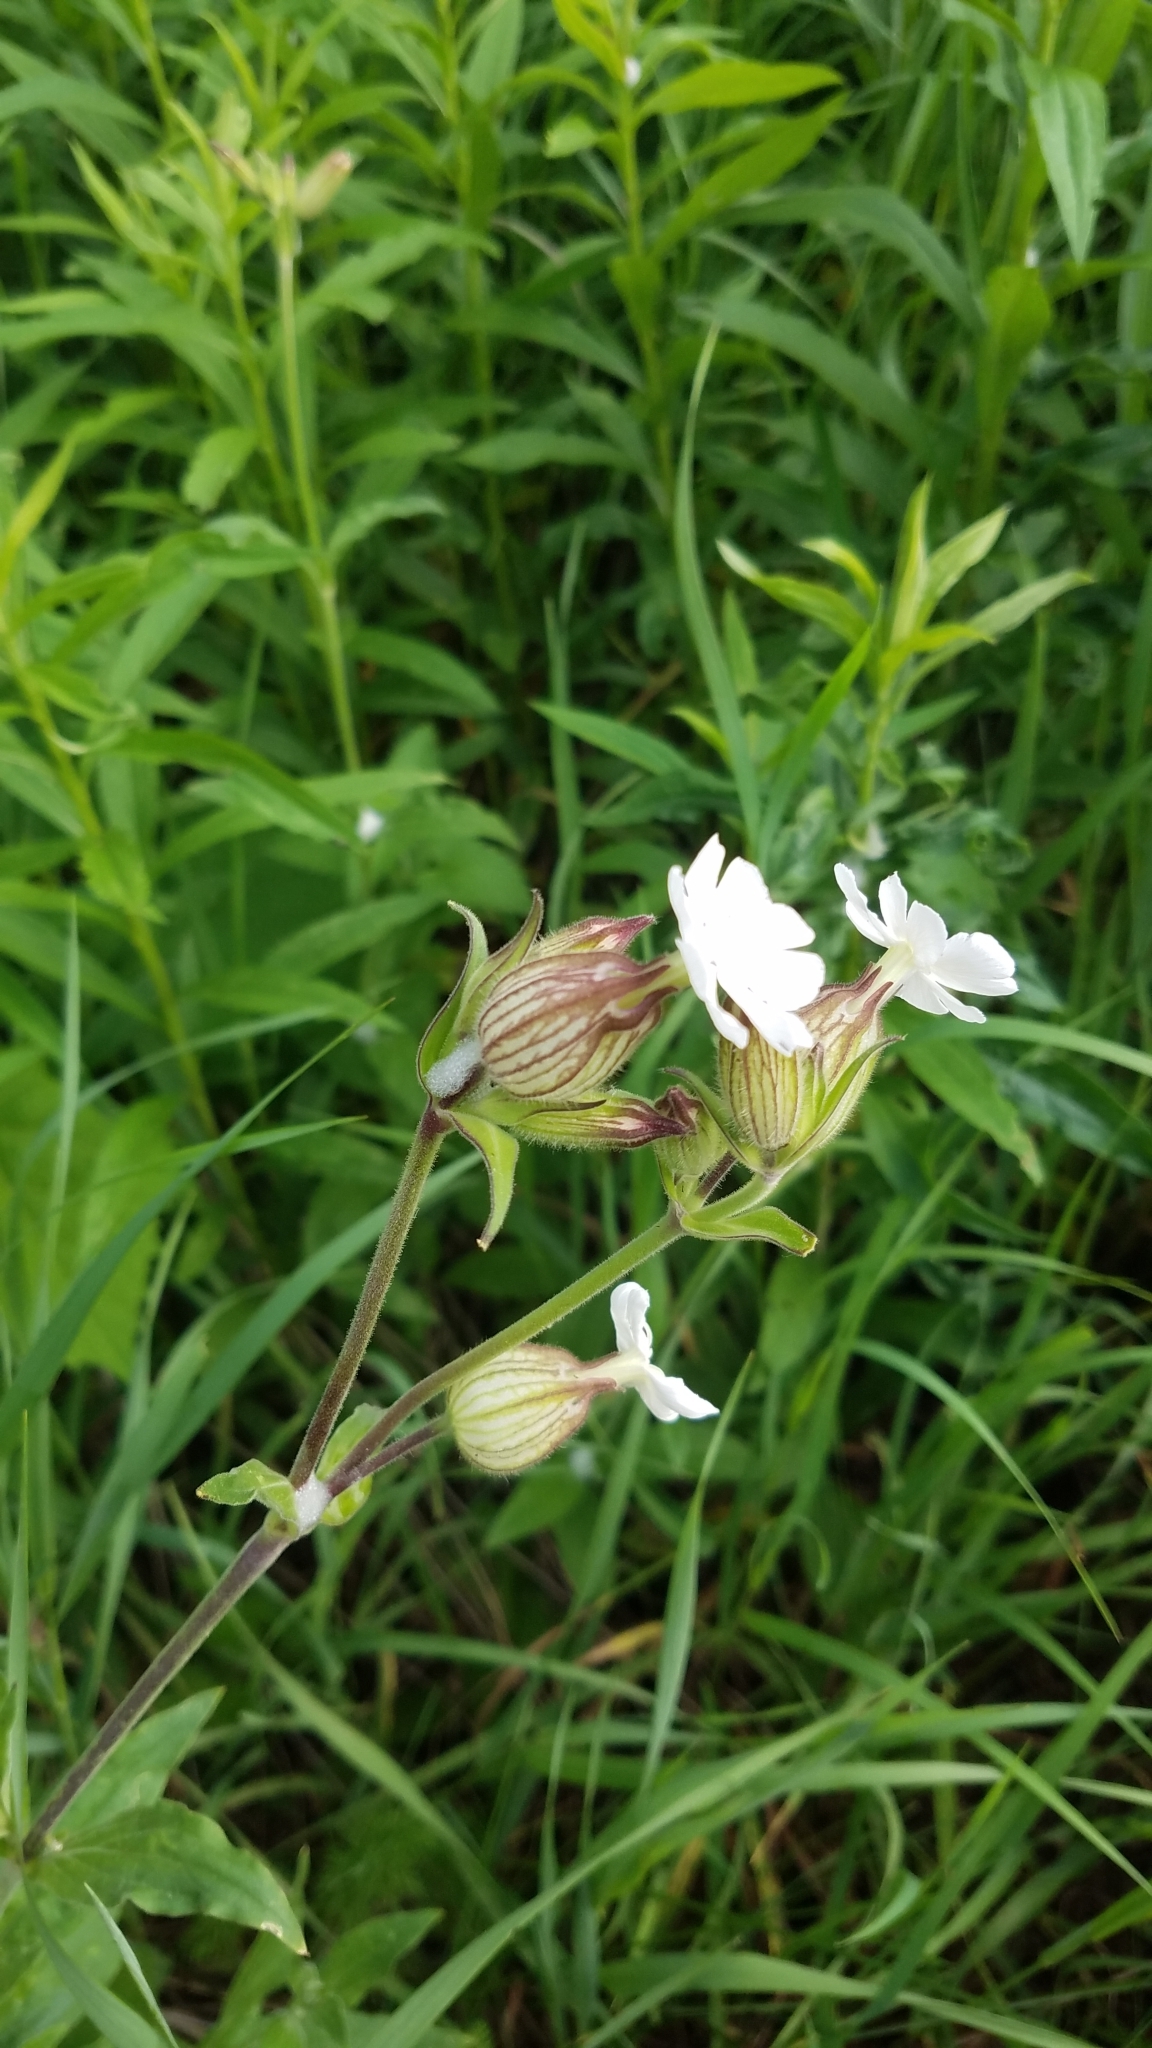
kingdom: Plantae
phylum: Tracheophyta
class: Magnoliopsida
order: Caryophyllales
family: Caryophyllaceae
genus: Silene
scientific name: Silene latifolia
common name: White campion
